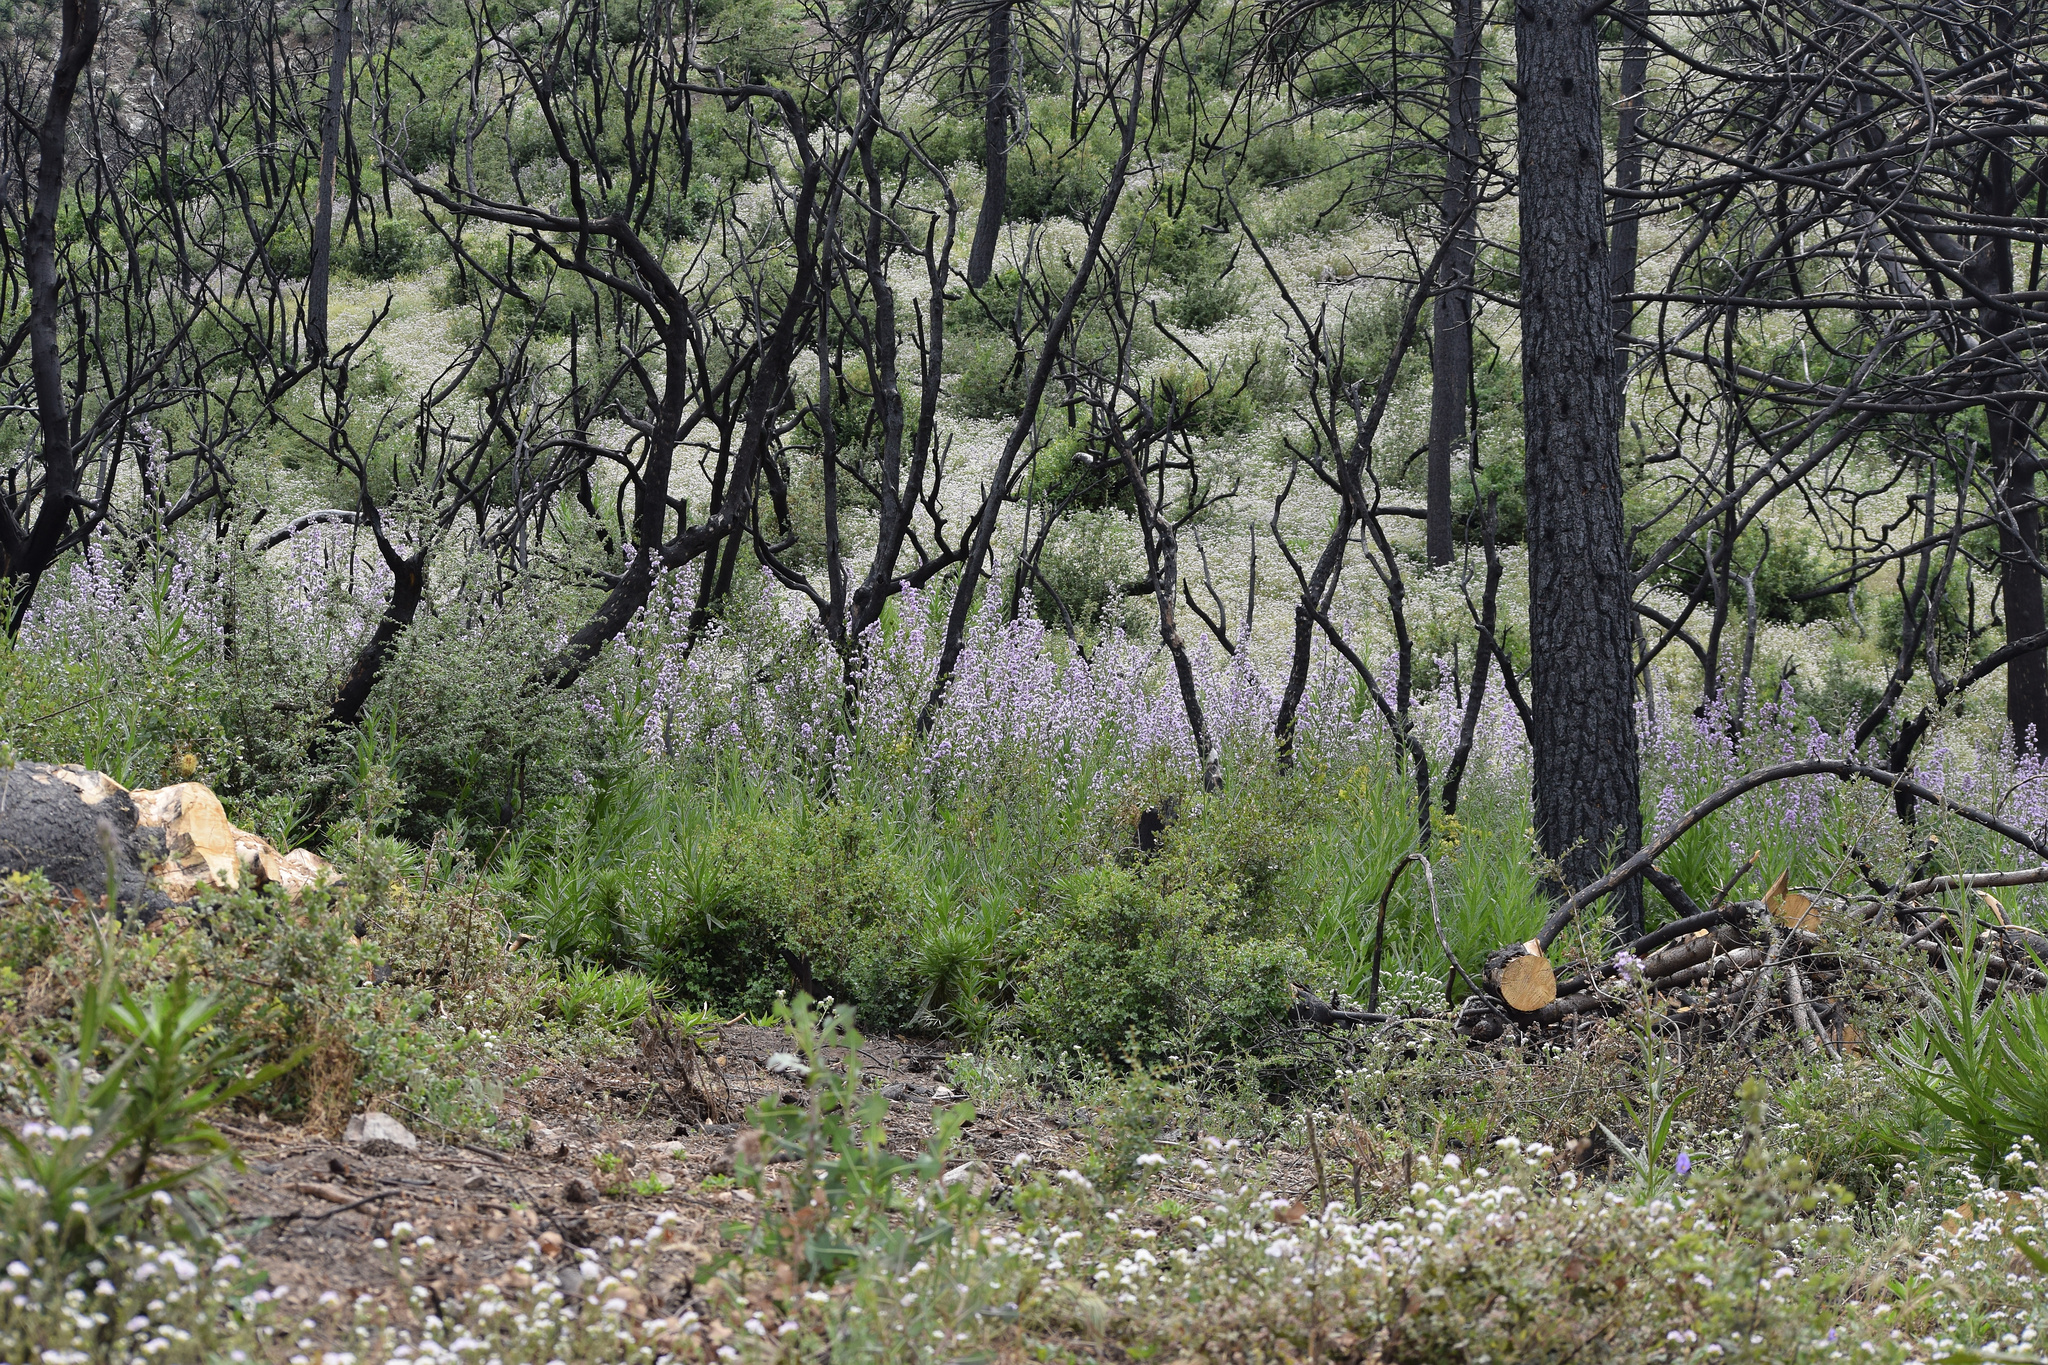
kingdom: Plantae
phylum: Tracheophyta
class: Magnoliopsida
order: Boraginales
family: Namaceae
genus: Turricula
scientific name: Turricula parryi
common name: Poodle-dog-bush
